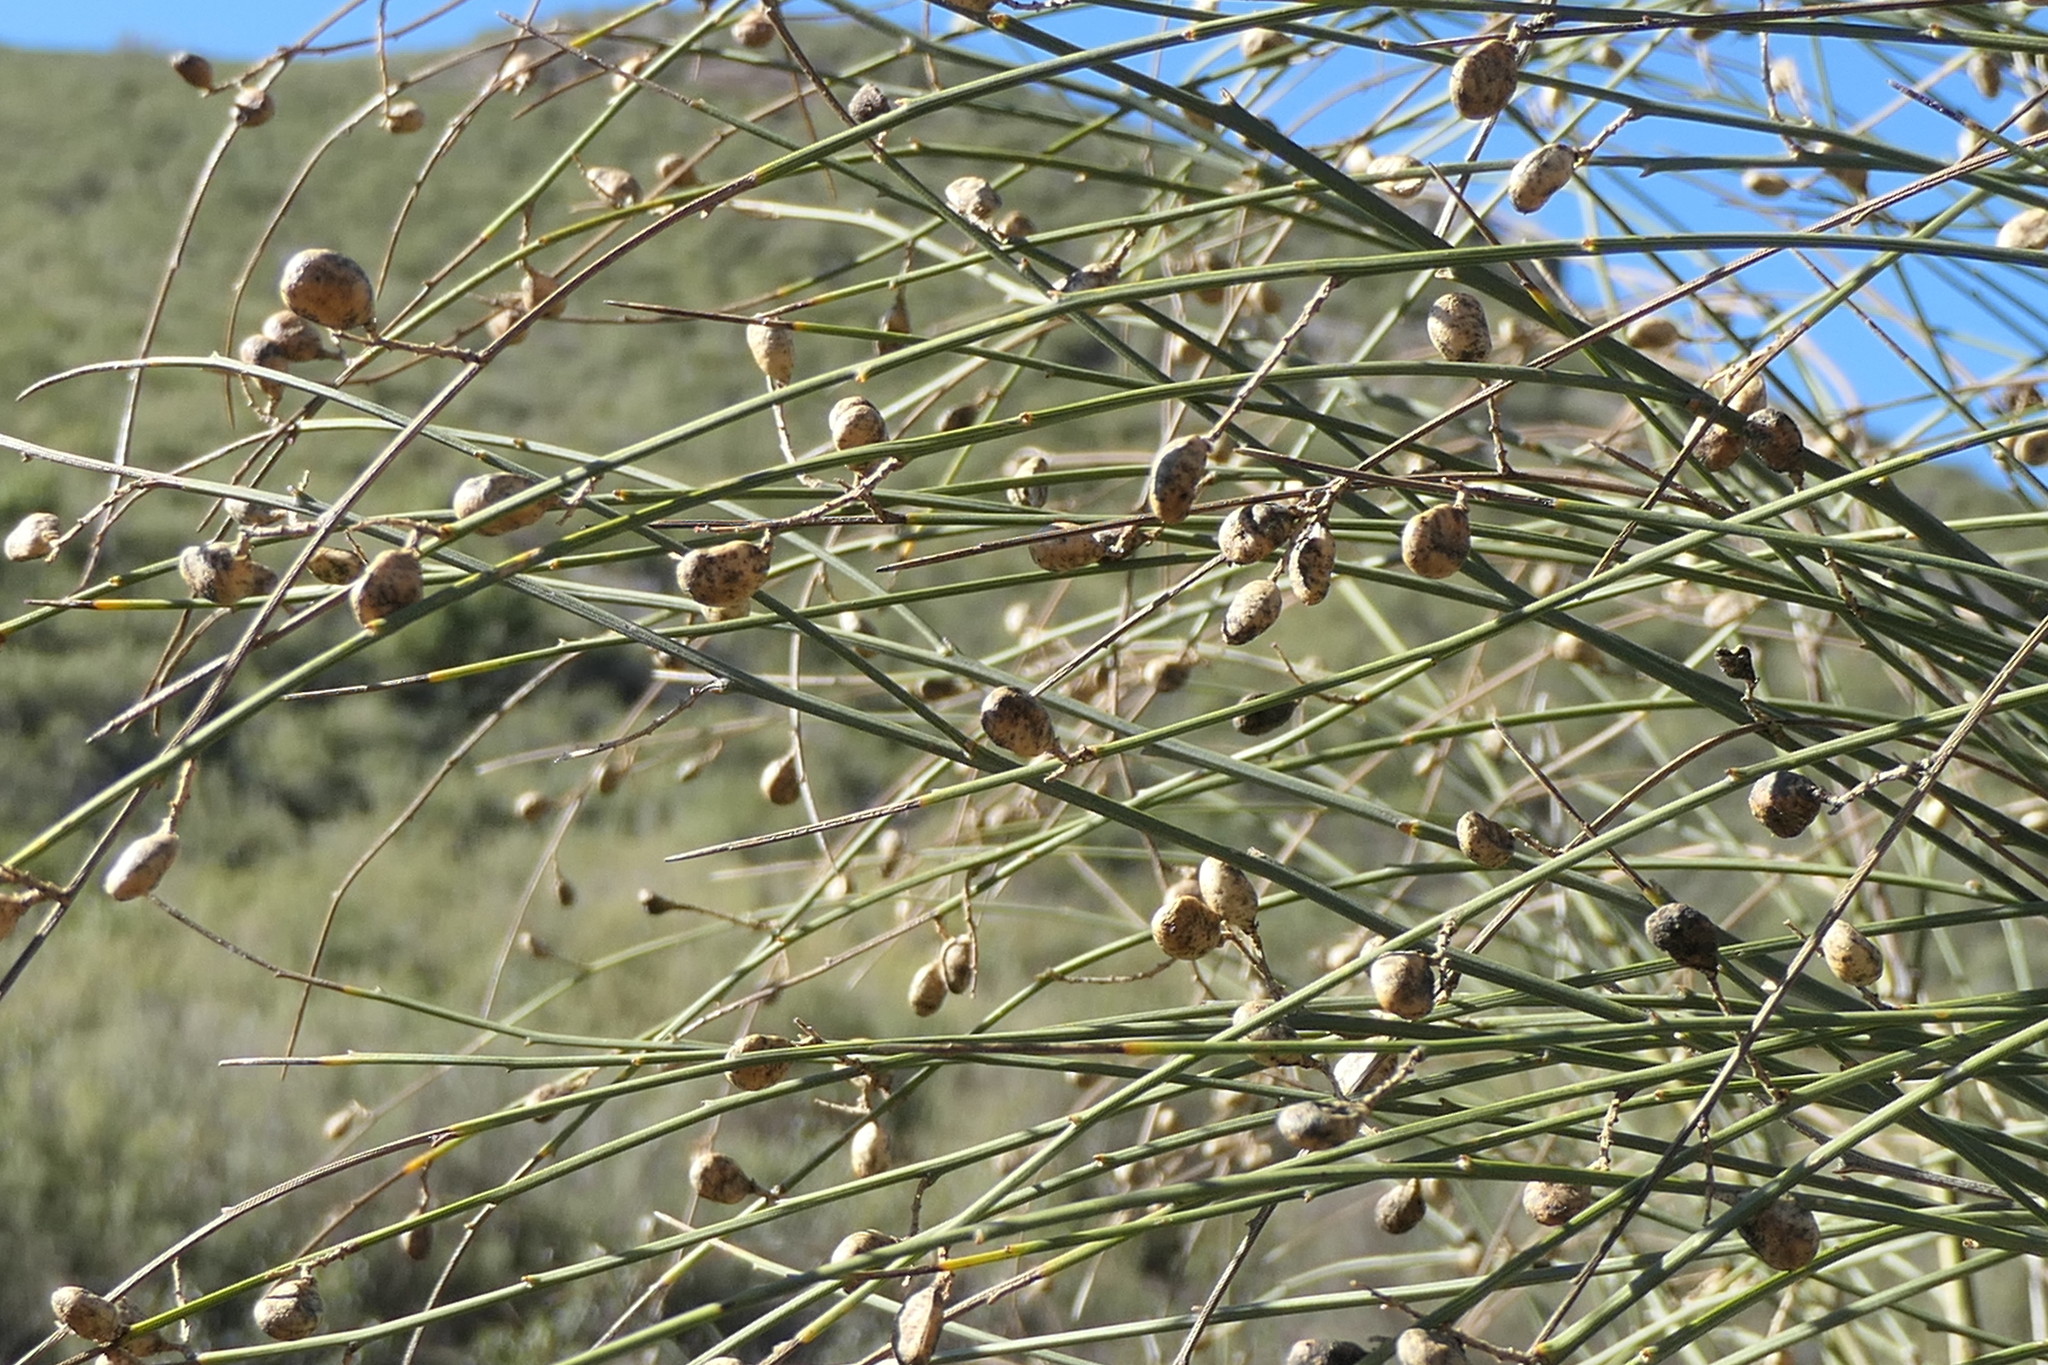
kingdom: Plantae
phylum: Tracheophyta
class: Magnoliopsida
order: Fabales
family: Fabaceae
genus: Retama
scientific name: Retama sphaerocarpa
